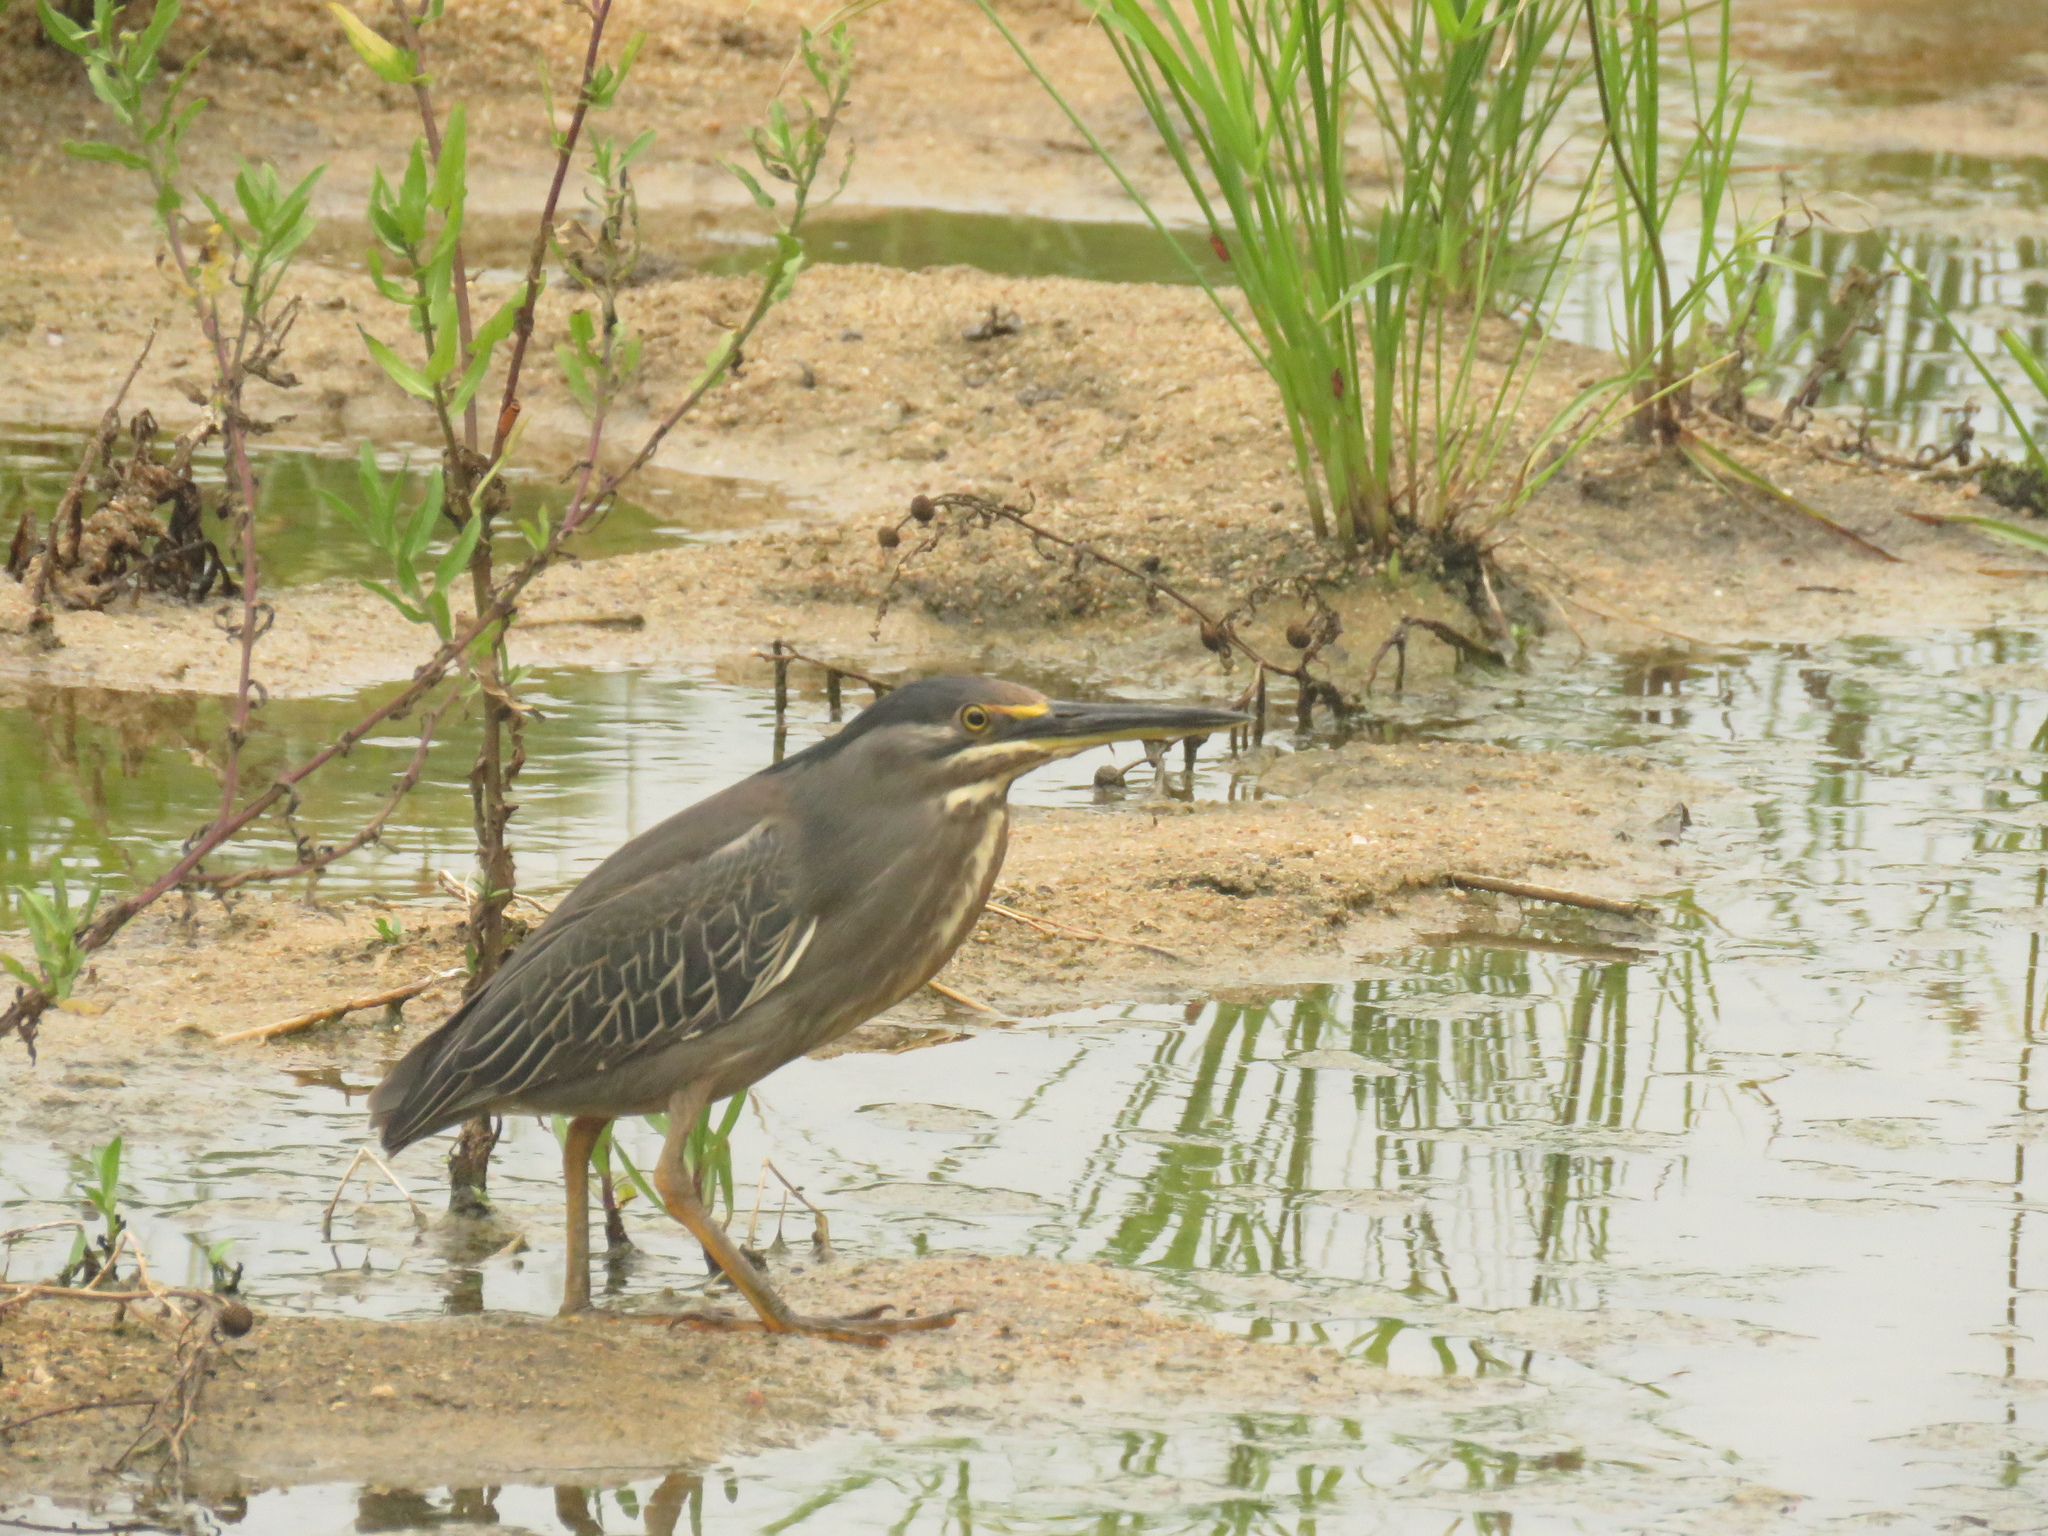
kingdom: Animalia
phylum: Chordata
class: Aves
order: Pelecaniformes
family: Ardeidae
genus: Butorides
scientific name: Butorides striata
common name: Striated heron
